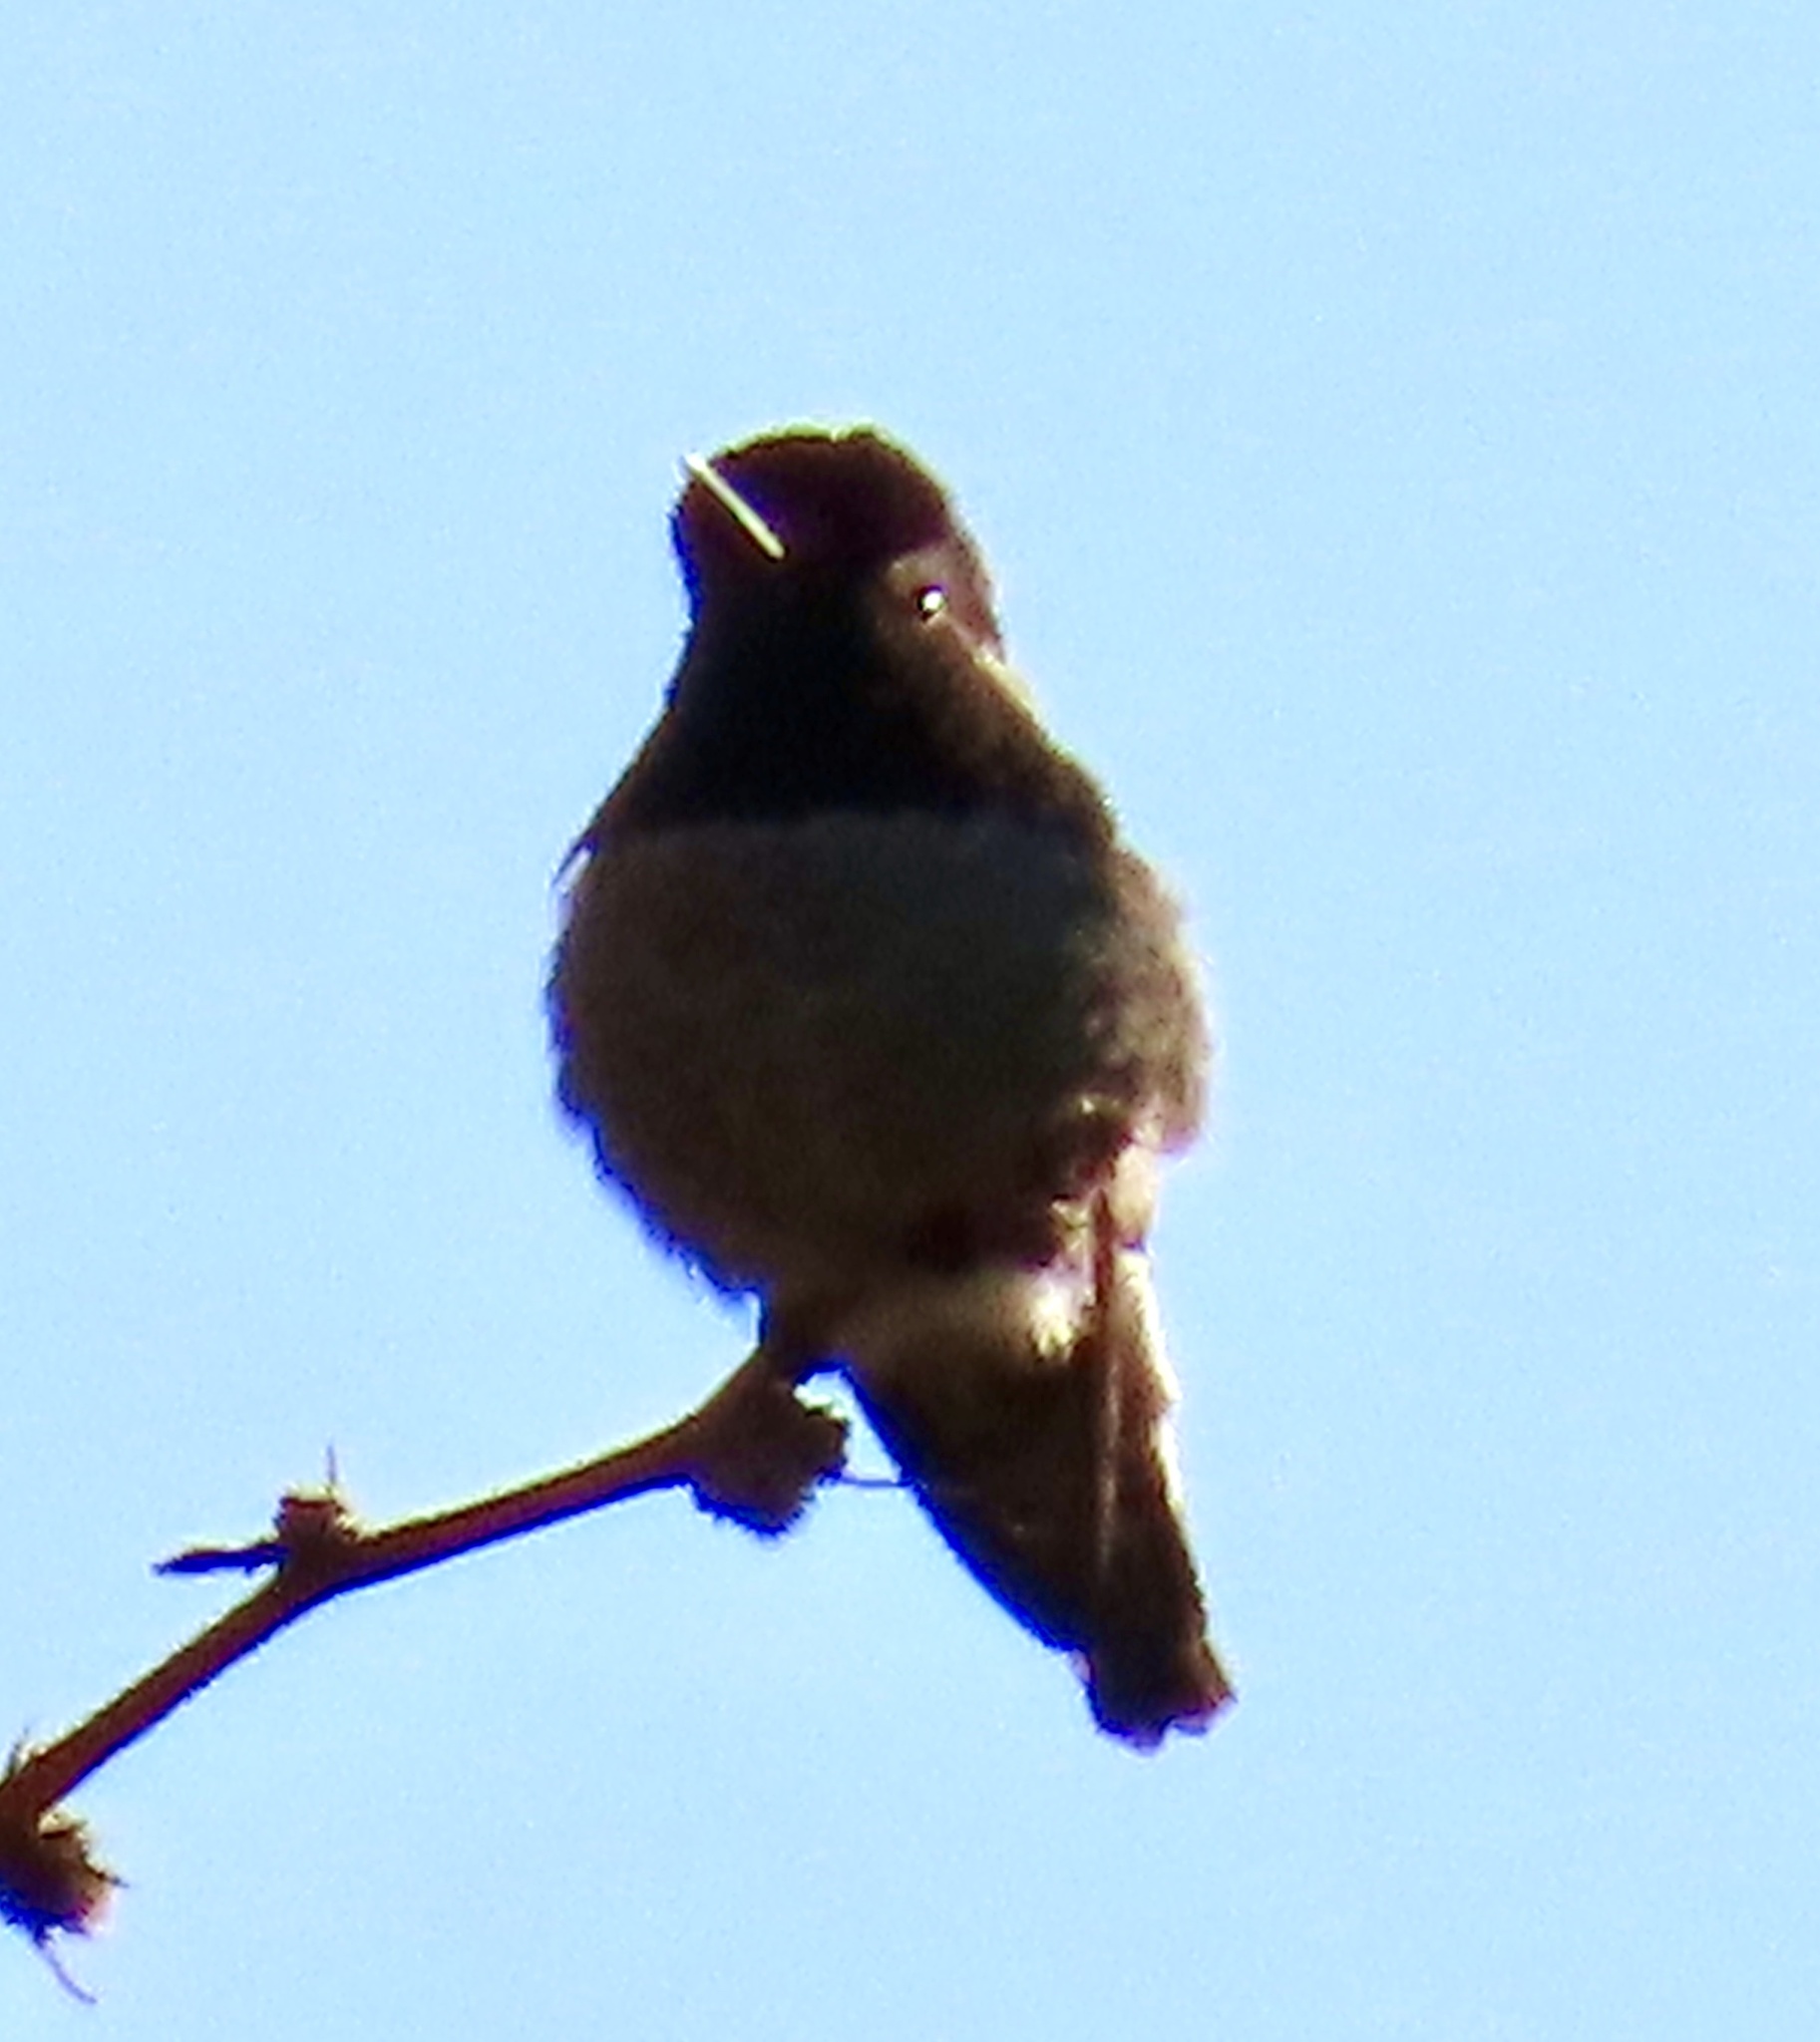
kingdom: Animalia
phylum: Chordata
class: Aves
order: Apodiformes
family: Trochilidae
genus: Calypte
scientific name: Calypte anna
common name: Anna's hummingbird
